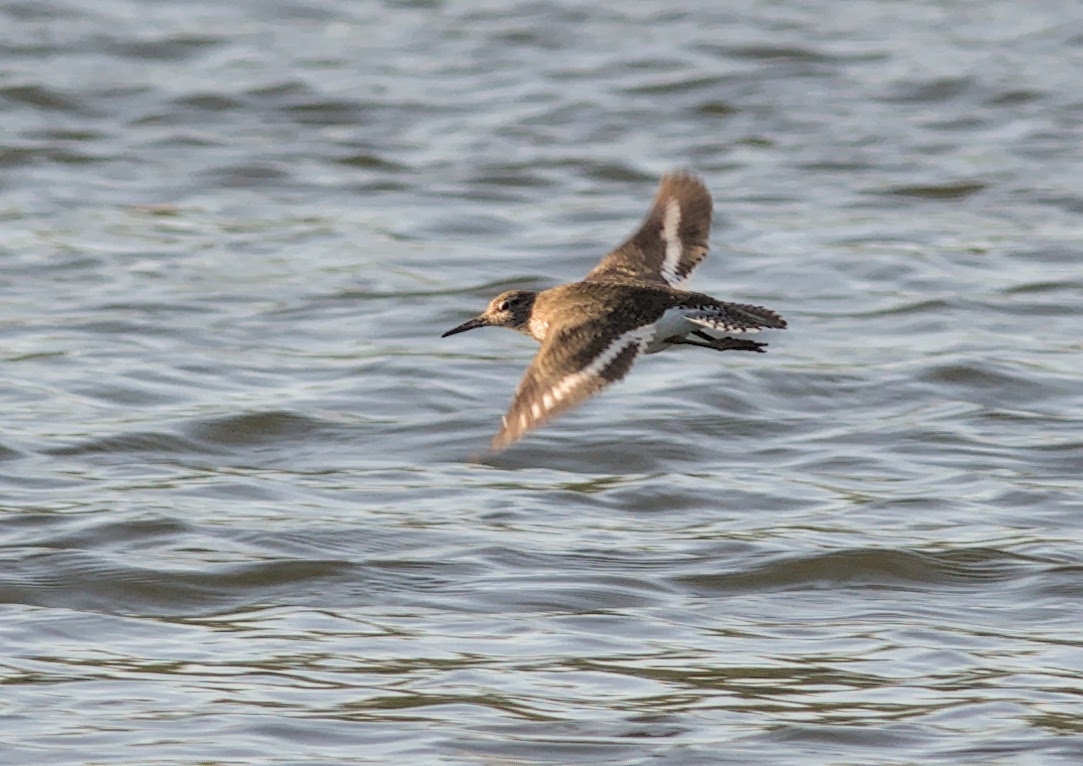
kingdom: Animalia
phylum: Chordata
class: Aves
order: Charadriiformes
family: Scolopacidae
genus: Actitis
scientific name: Actitis hypoleucos
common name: Common sandpiper
